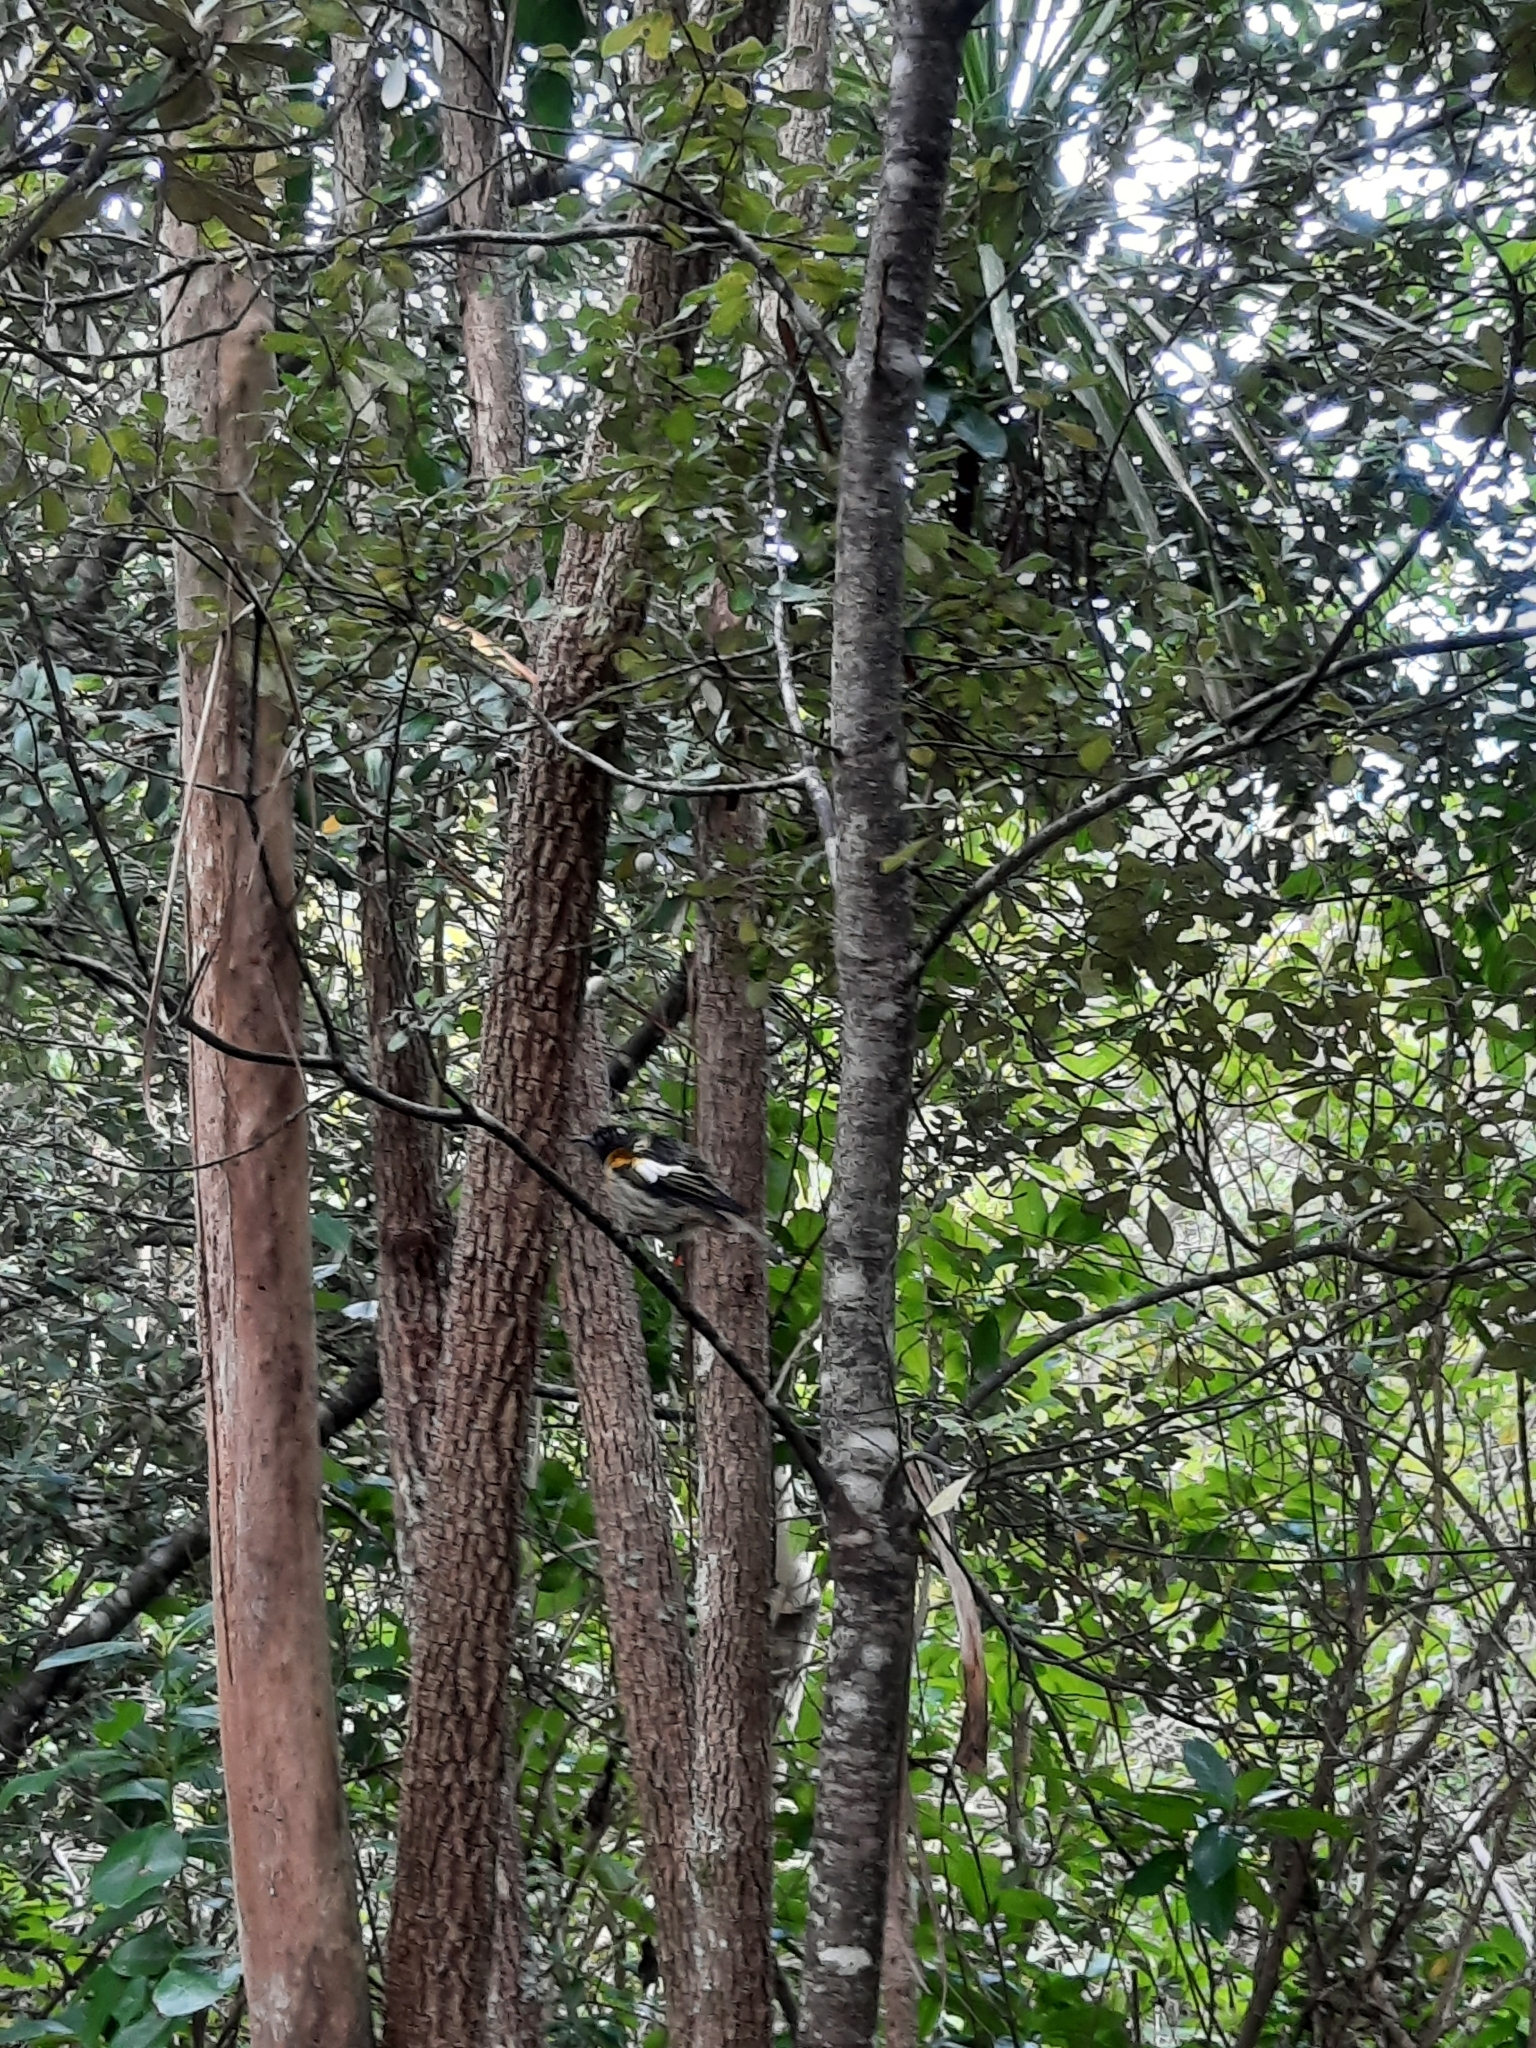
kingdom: Animalia
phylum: Chordata
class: Aves
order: Passeriformes
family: Notiomystidae
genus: Notiomystis
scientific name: Notiomystis cincta
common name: Stitchbird
